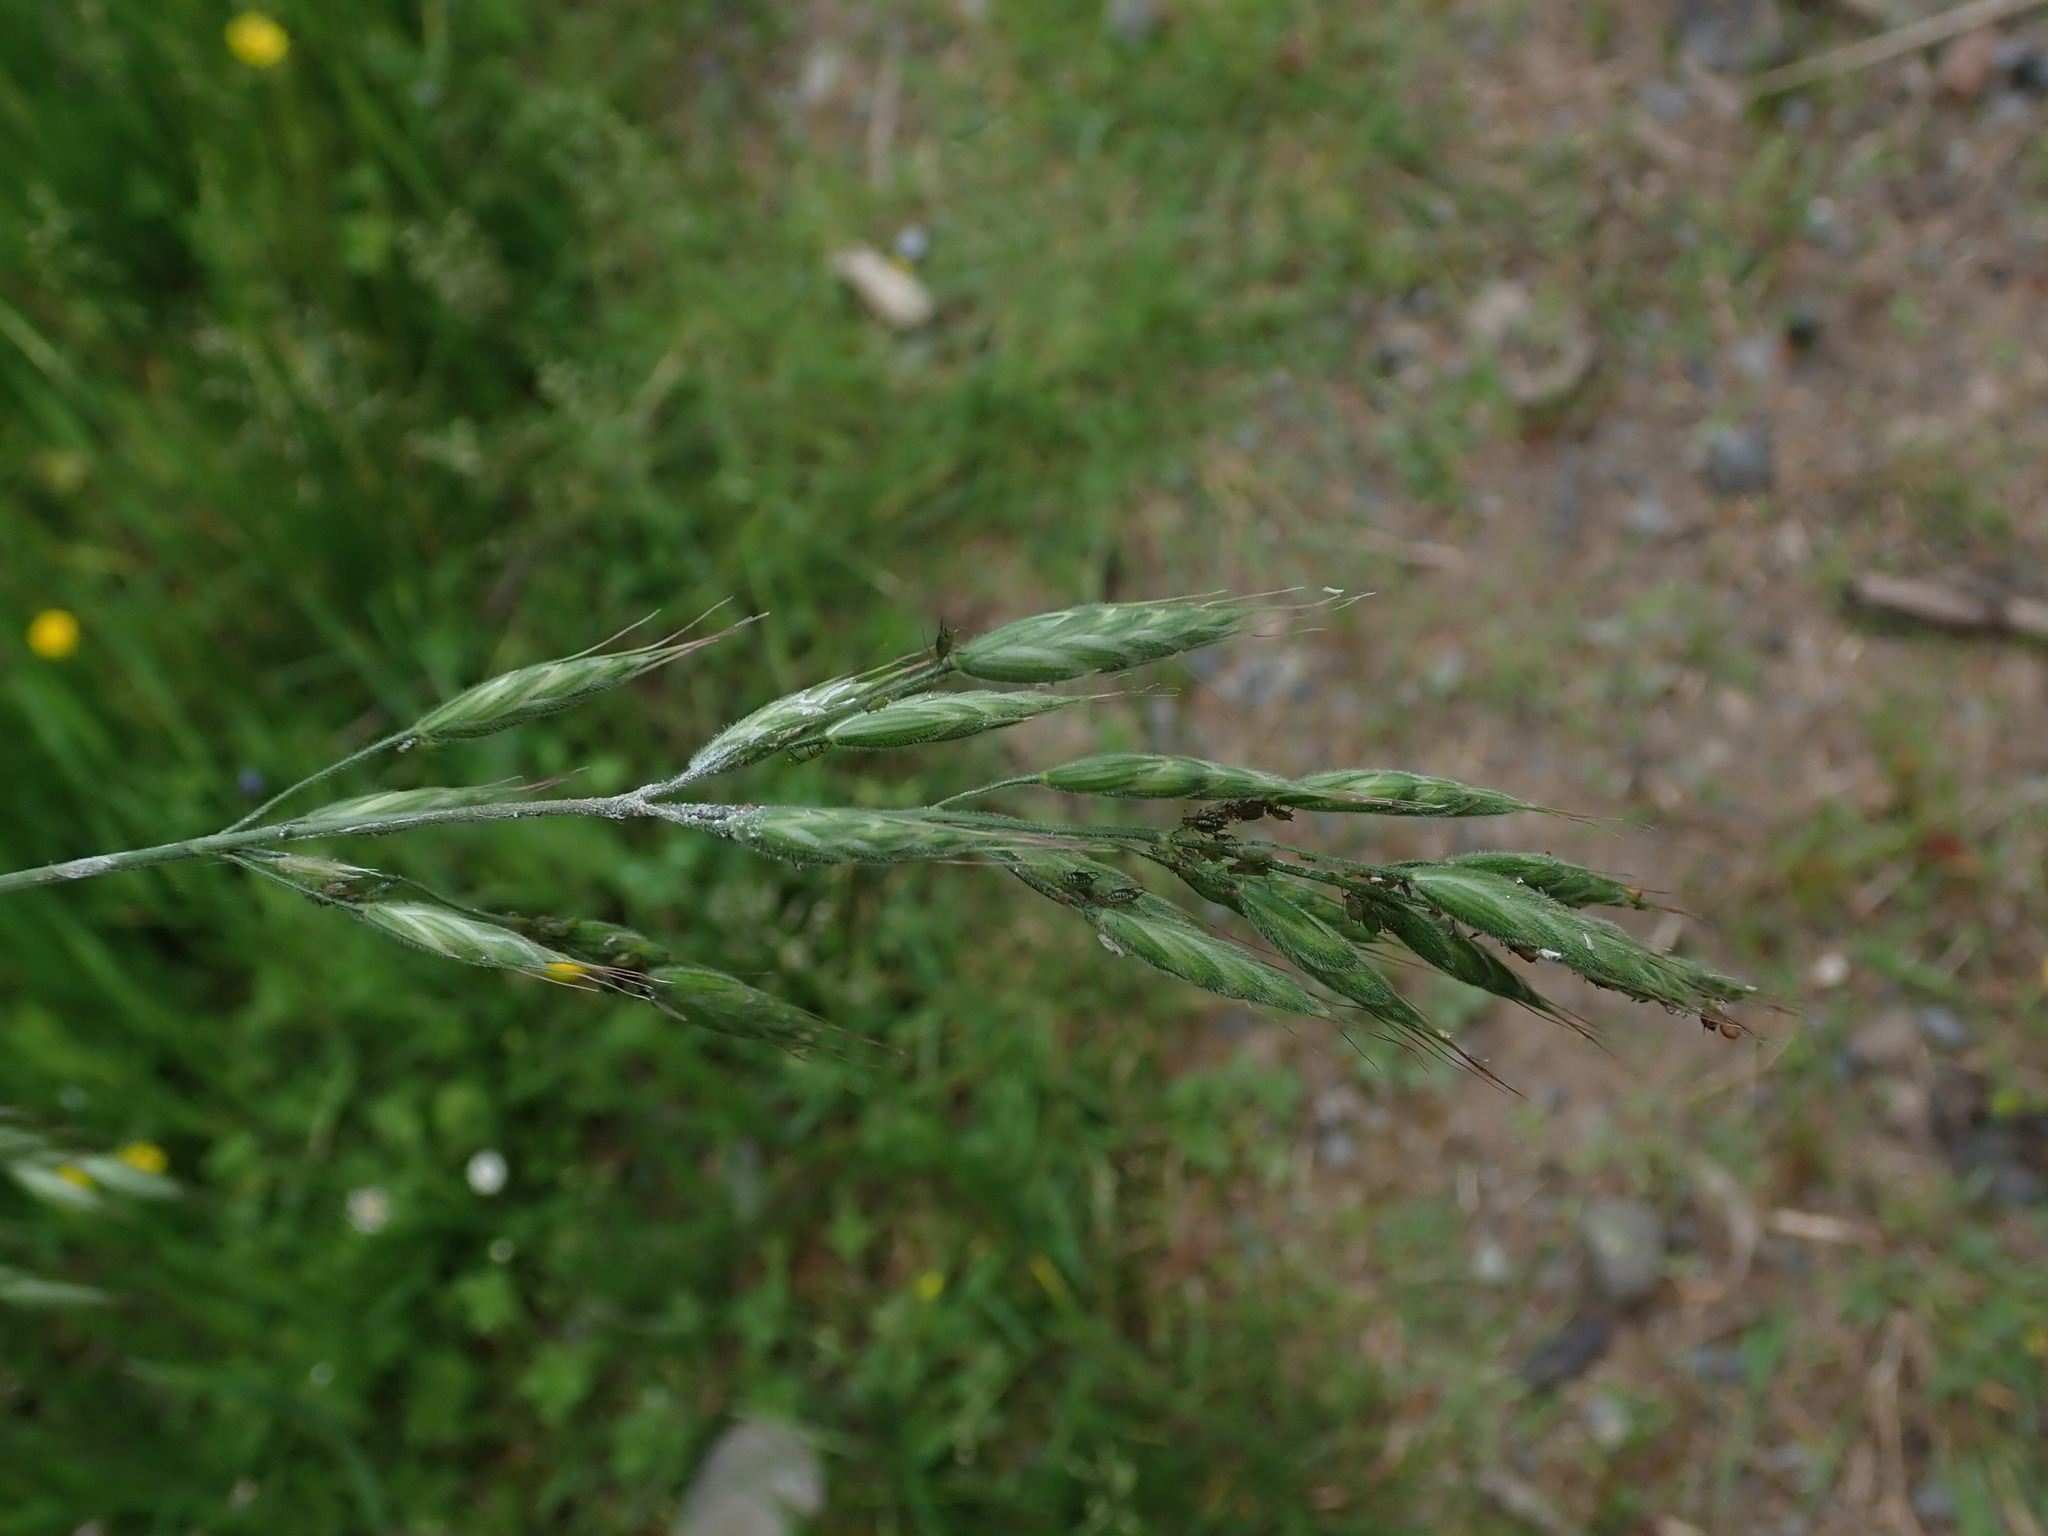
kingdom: Plantae
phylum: Tracheophyta
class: Liliopsida
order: Poales
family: Poaceae
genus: Bromus
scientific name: Bromus hordeaceus
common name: Soft brome
